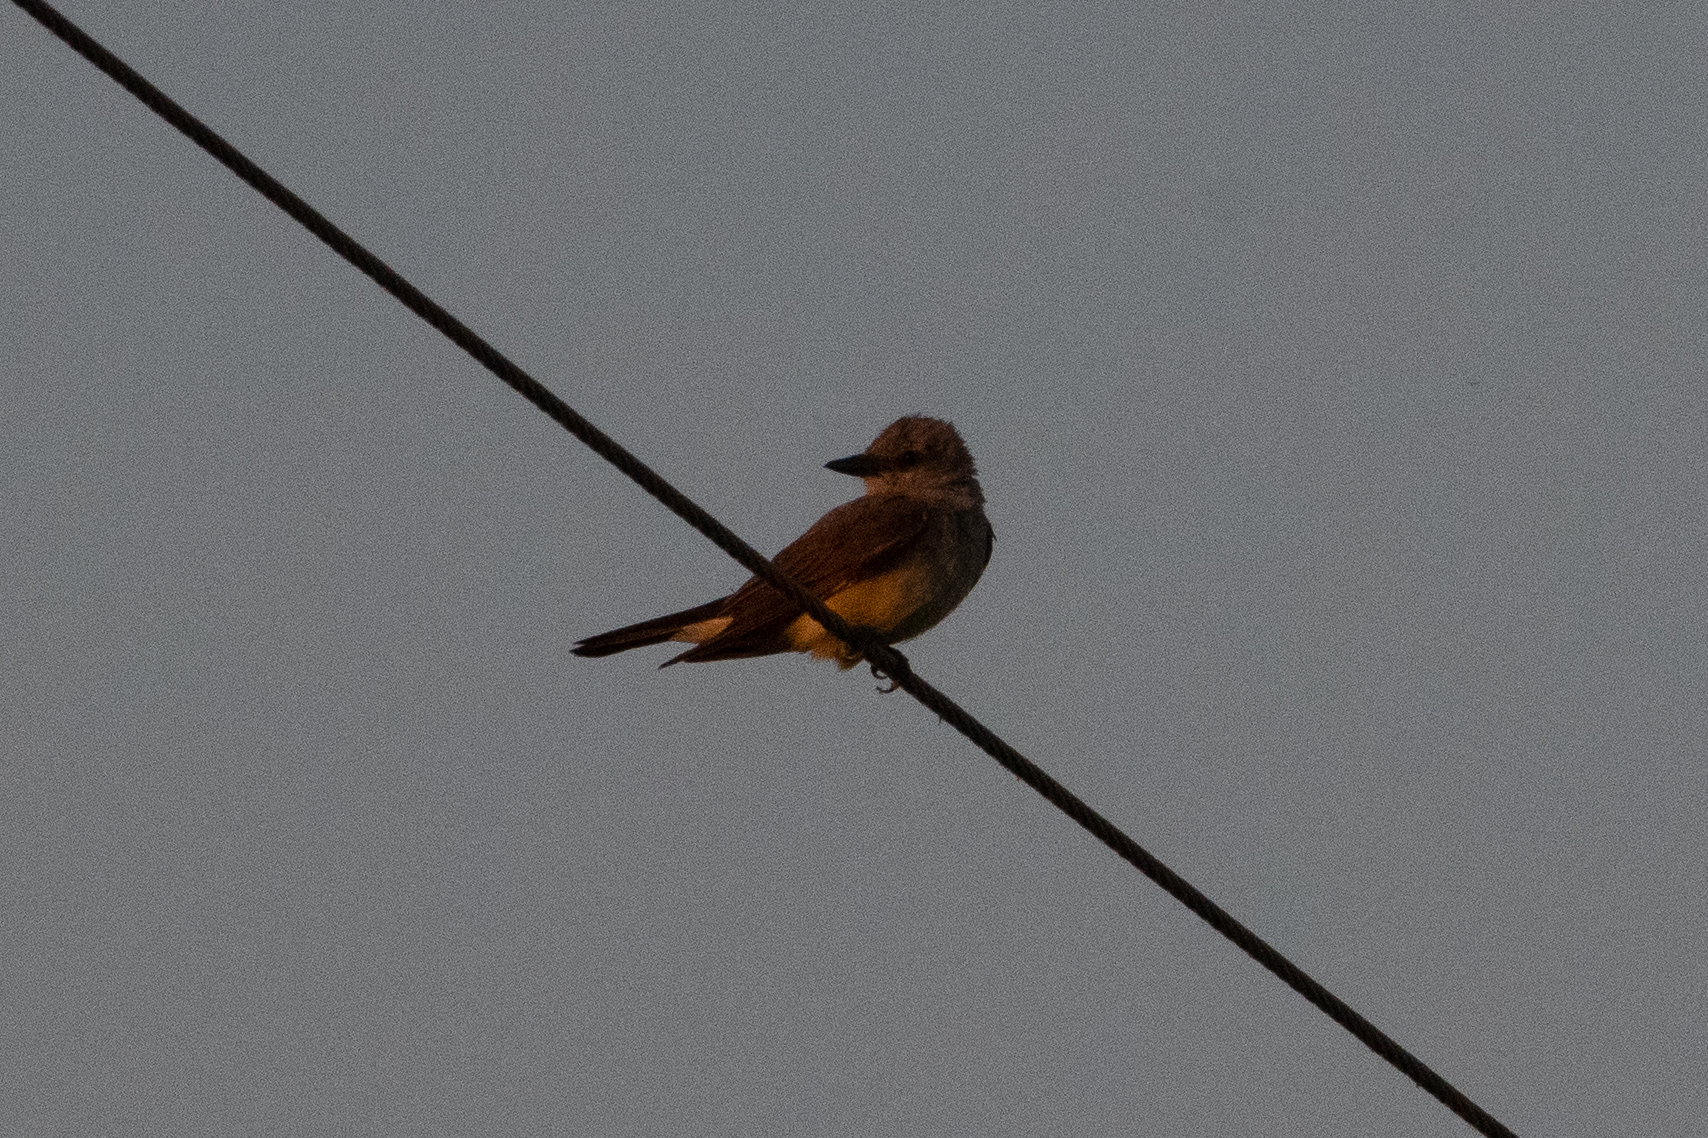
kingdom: Animalia
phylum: Chordata
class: Aves
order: Passeriformes
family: Tyrannidae
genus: Tyrannus
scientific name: Tyrannus verticalis
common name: Western kingbird
